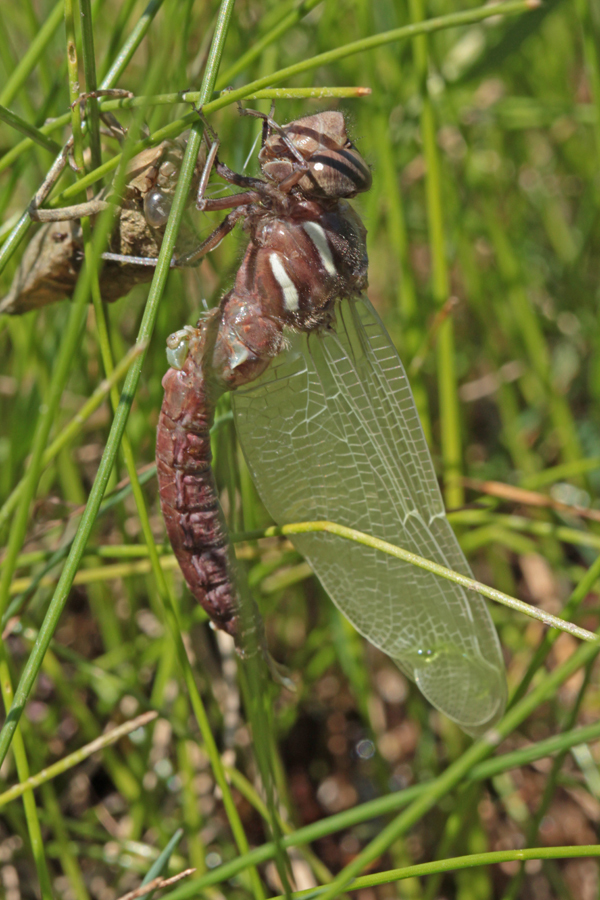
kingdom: Animalia
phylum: Arthropoda
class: Insecta
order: Odonata
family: Aeshnidae
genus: Basiaeschna
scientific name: Basiaeschna janata
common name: Springtime darner
